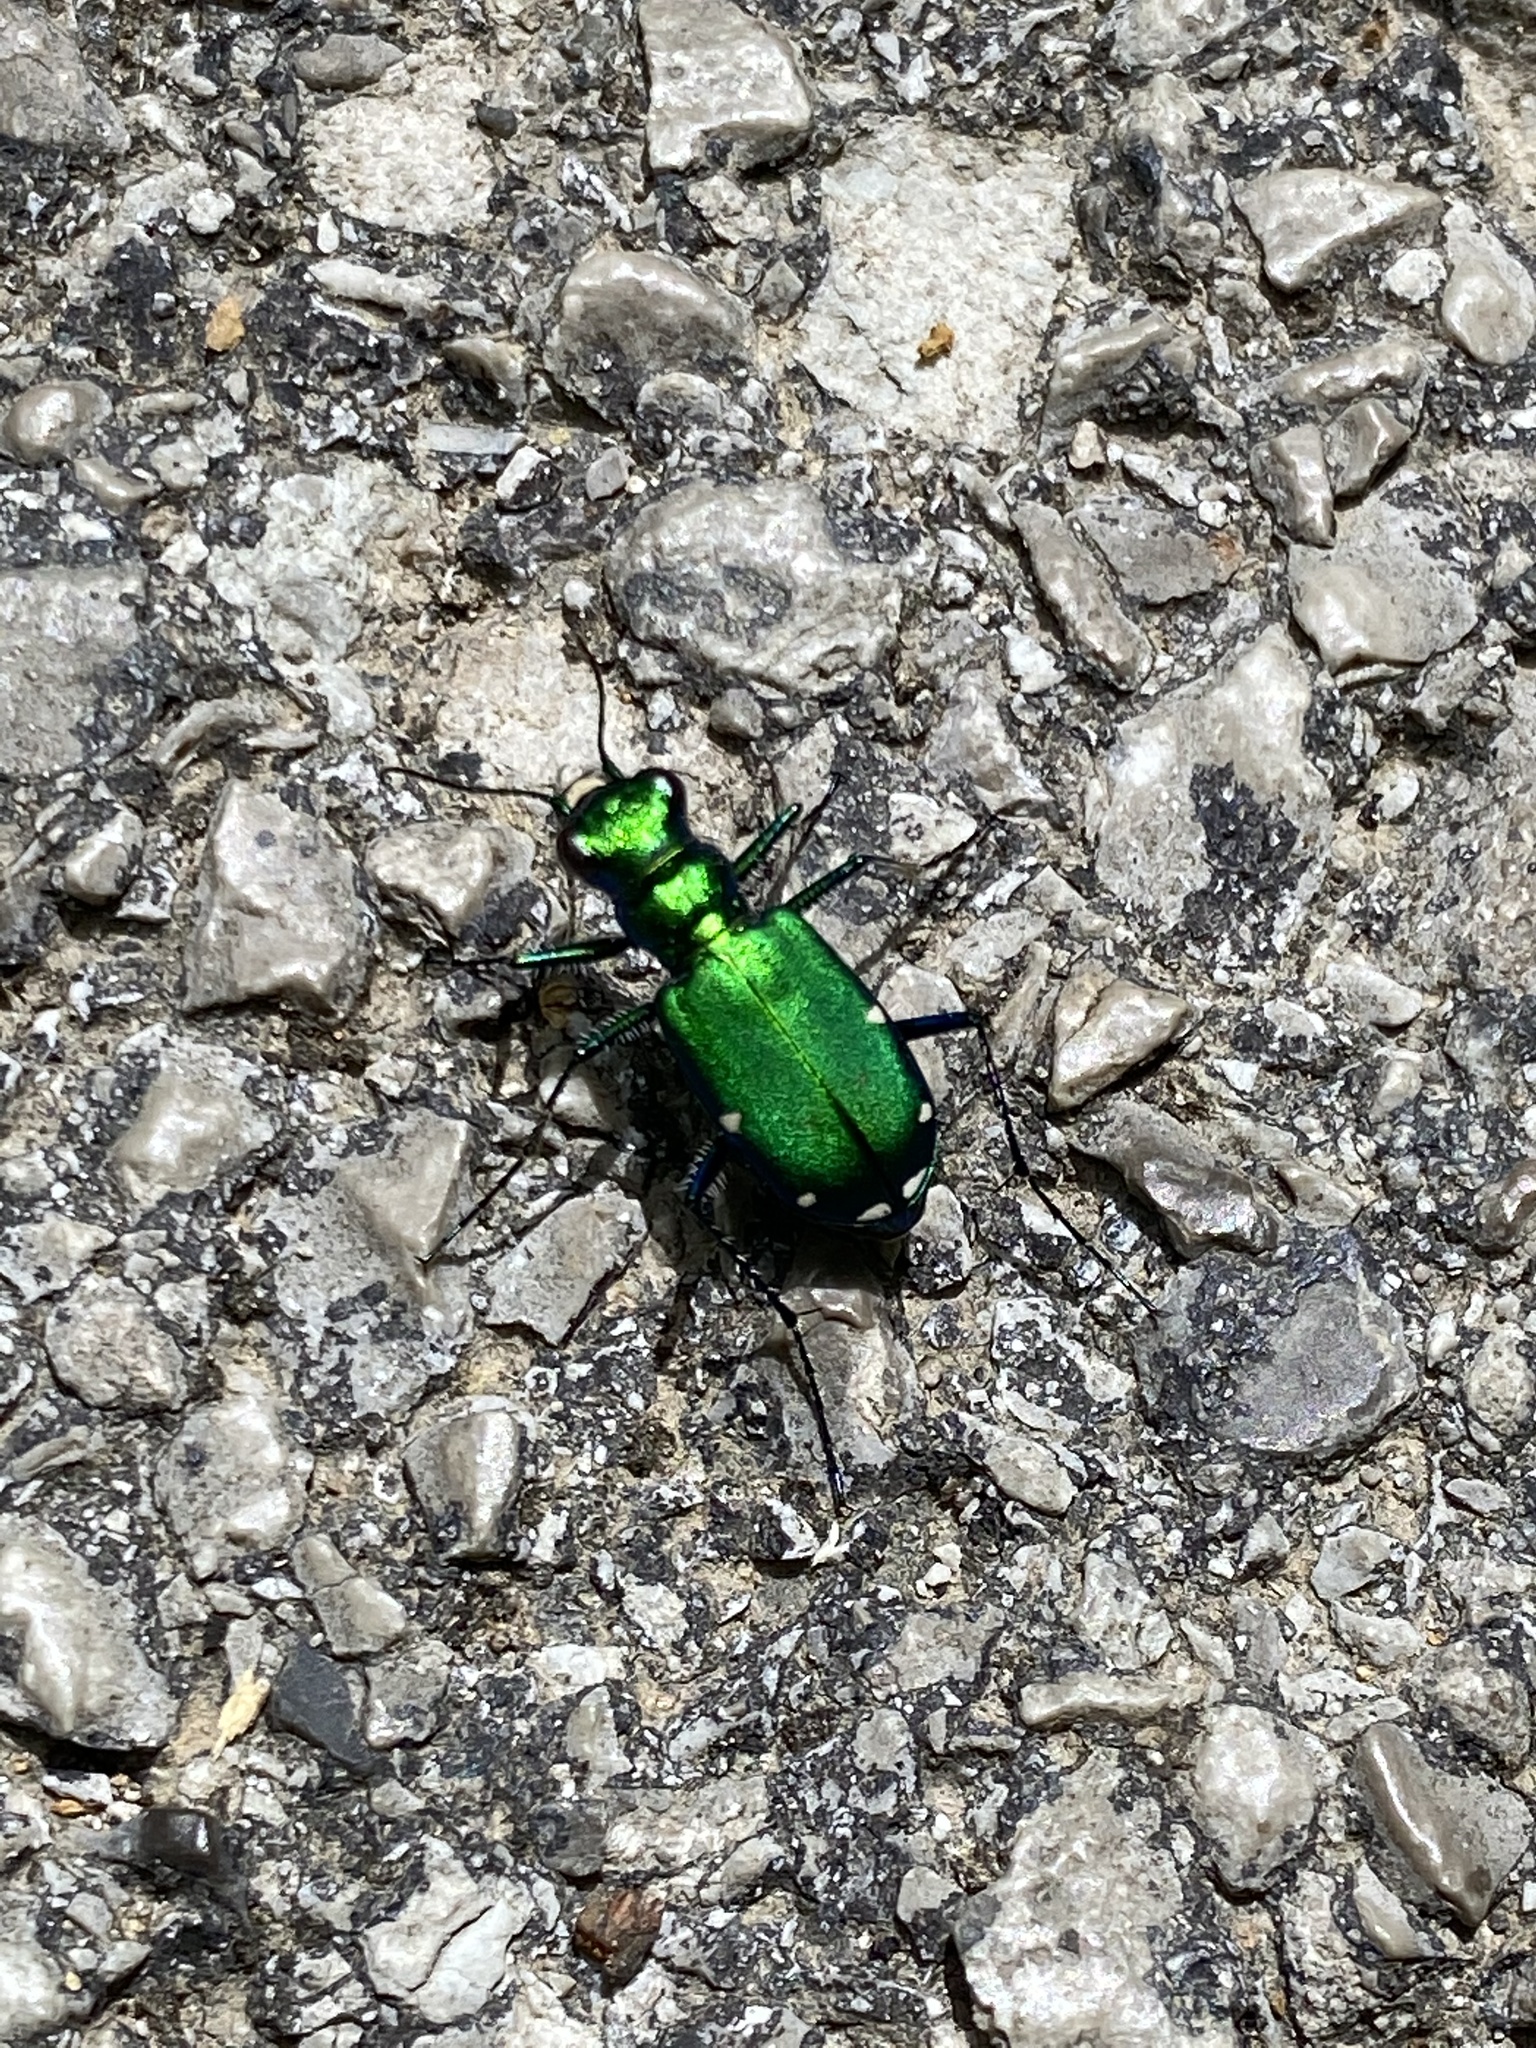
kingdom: Animalia
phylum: Arthropoda
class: Insecta
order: Coleoptera
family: Carabidae
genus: Cicindela
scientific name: Cicindela sexguttata
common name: Six-spotted tiger beetle
